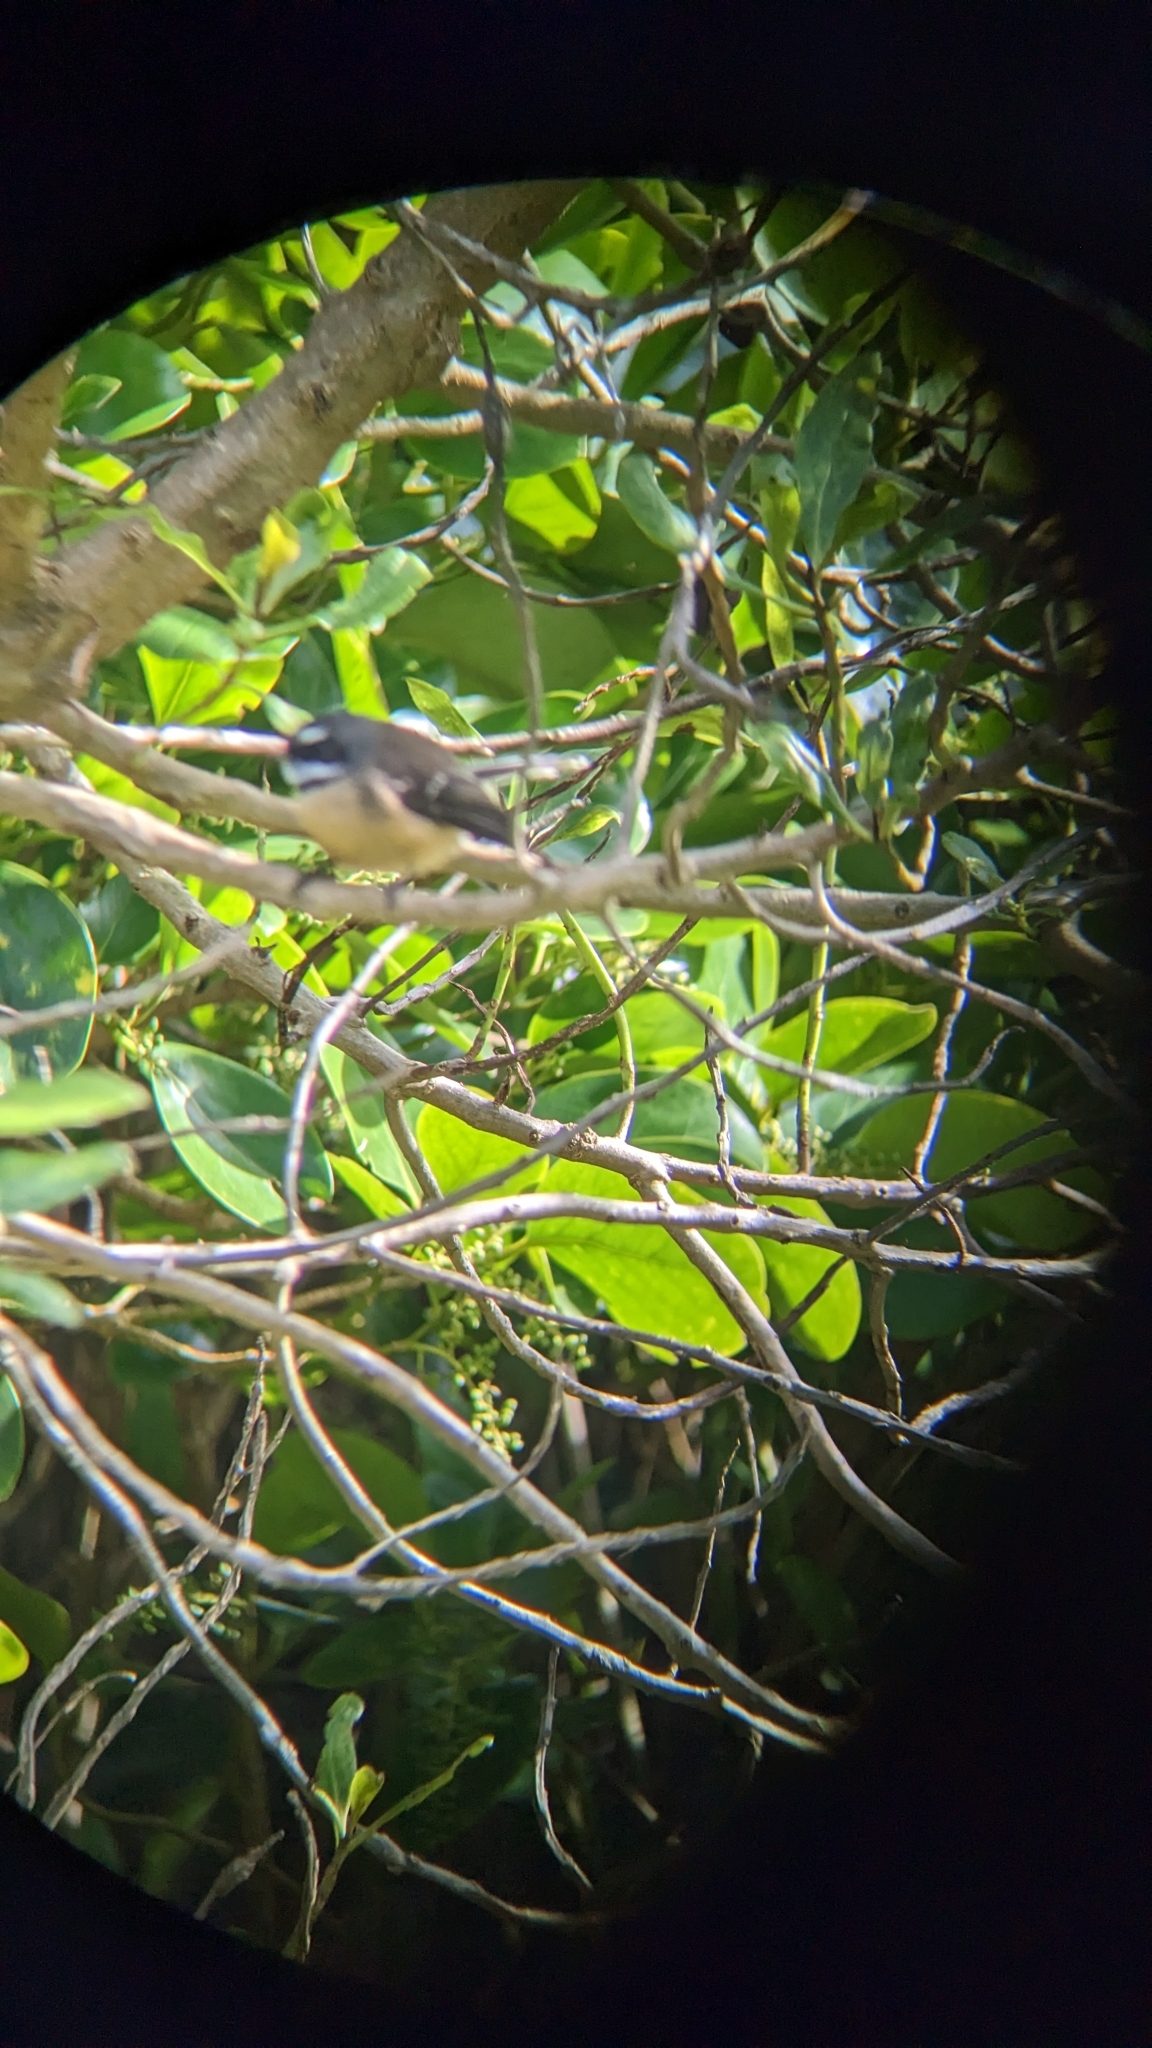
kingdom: Animalia
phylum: Chordata
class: Aves
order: Passeriformes
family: Rhipiduridae
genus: Rhipidura
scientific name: Rhipidura fuliginosa
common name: New zealand fantail
